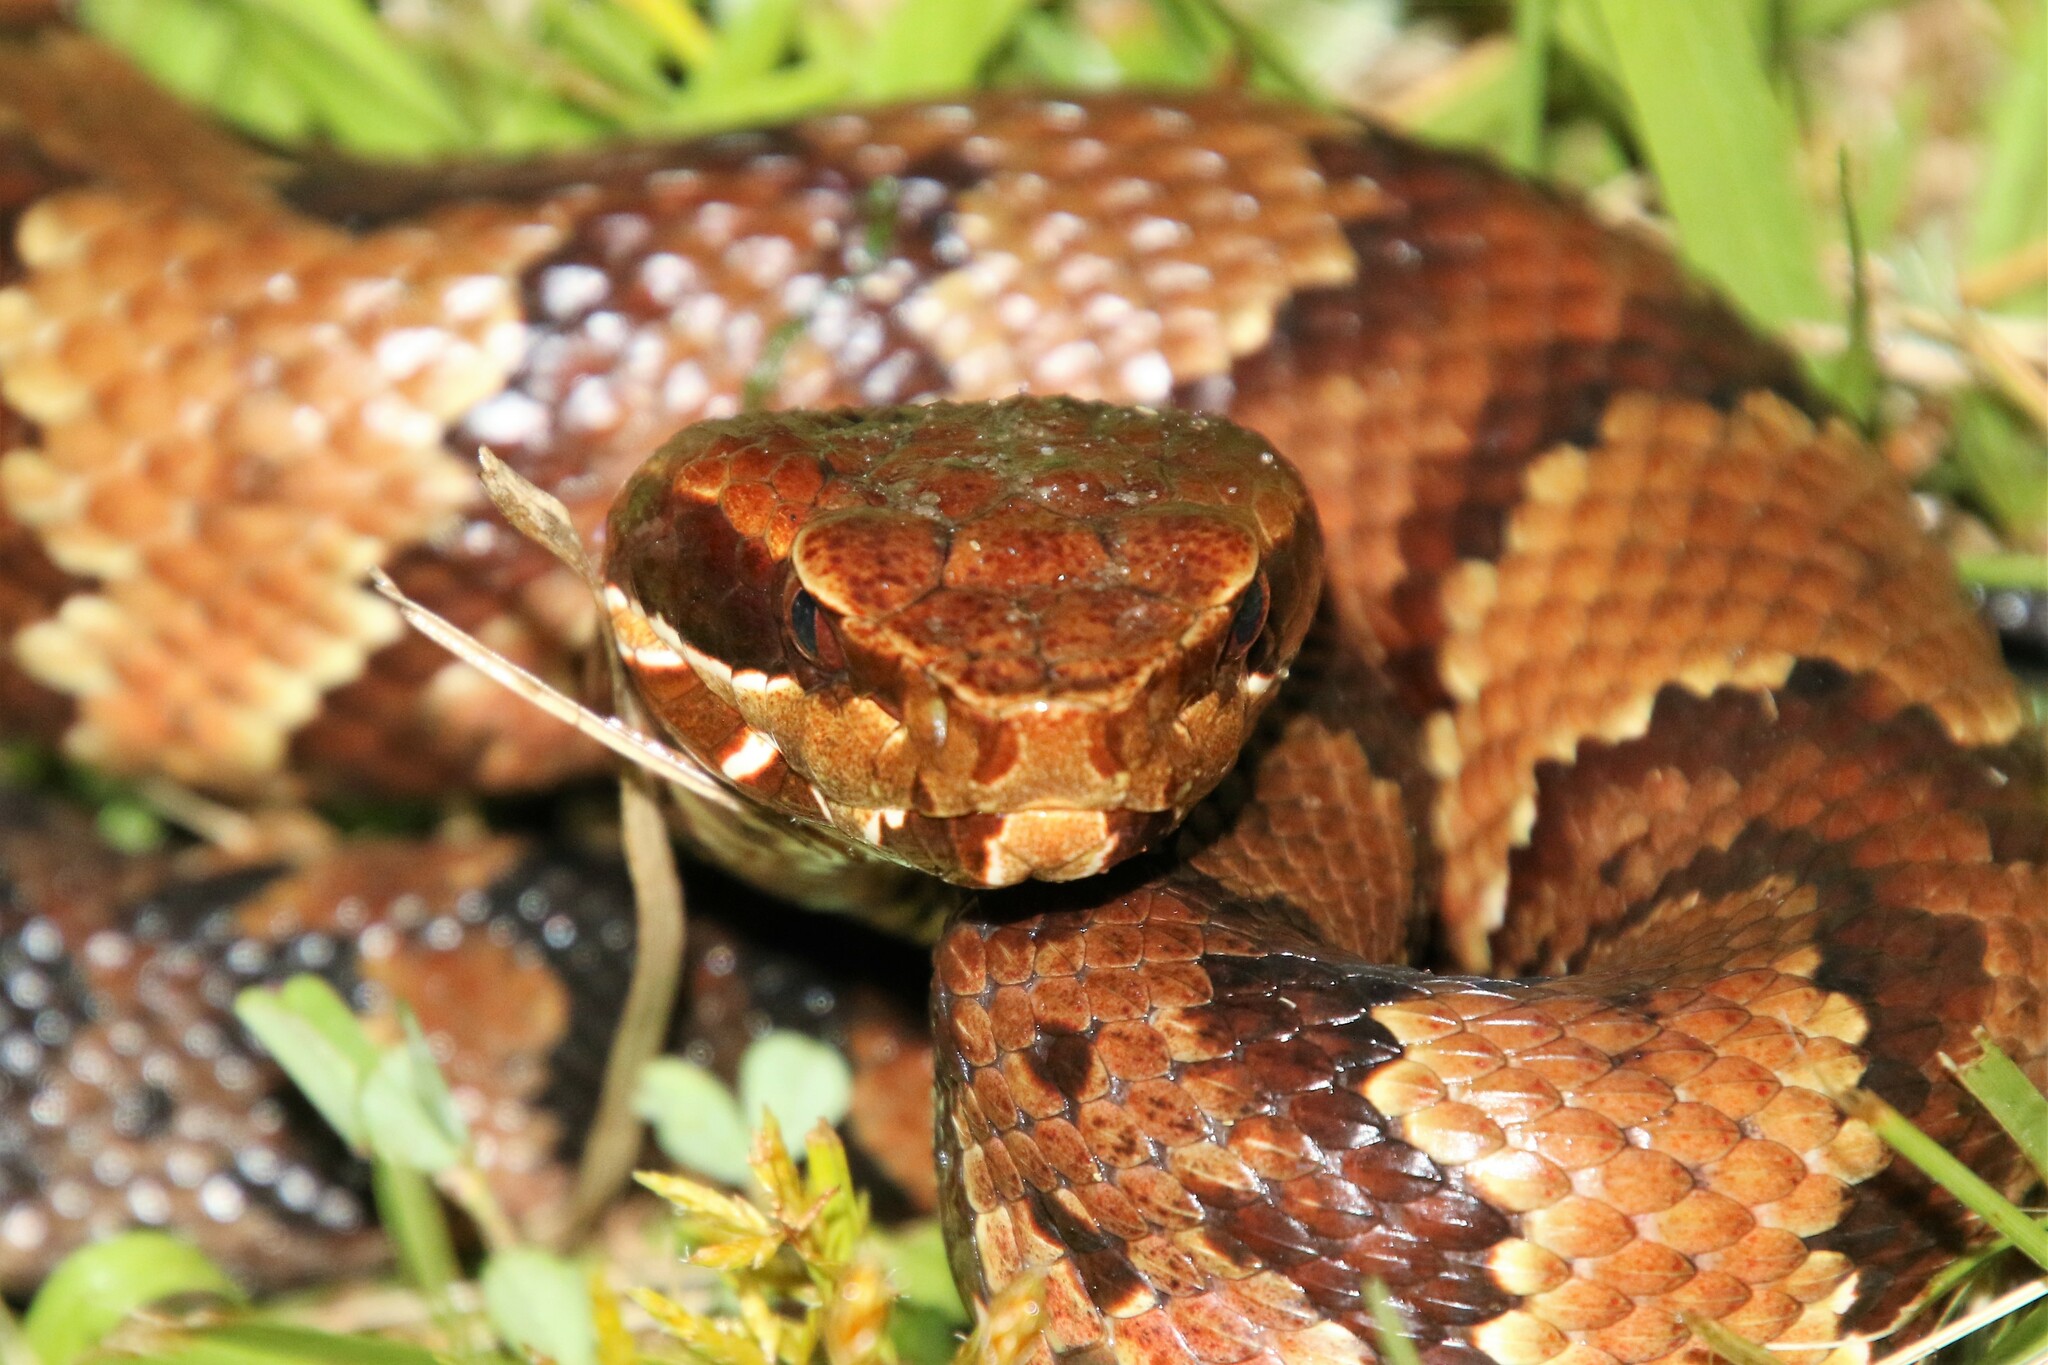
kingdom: Animalia
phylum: Chordata
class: Squamata
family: Viperidae
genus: Agkistrodon
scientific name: Agkistrodon piscivorus
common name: Cottonmouth
